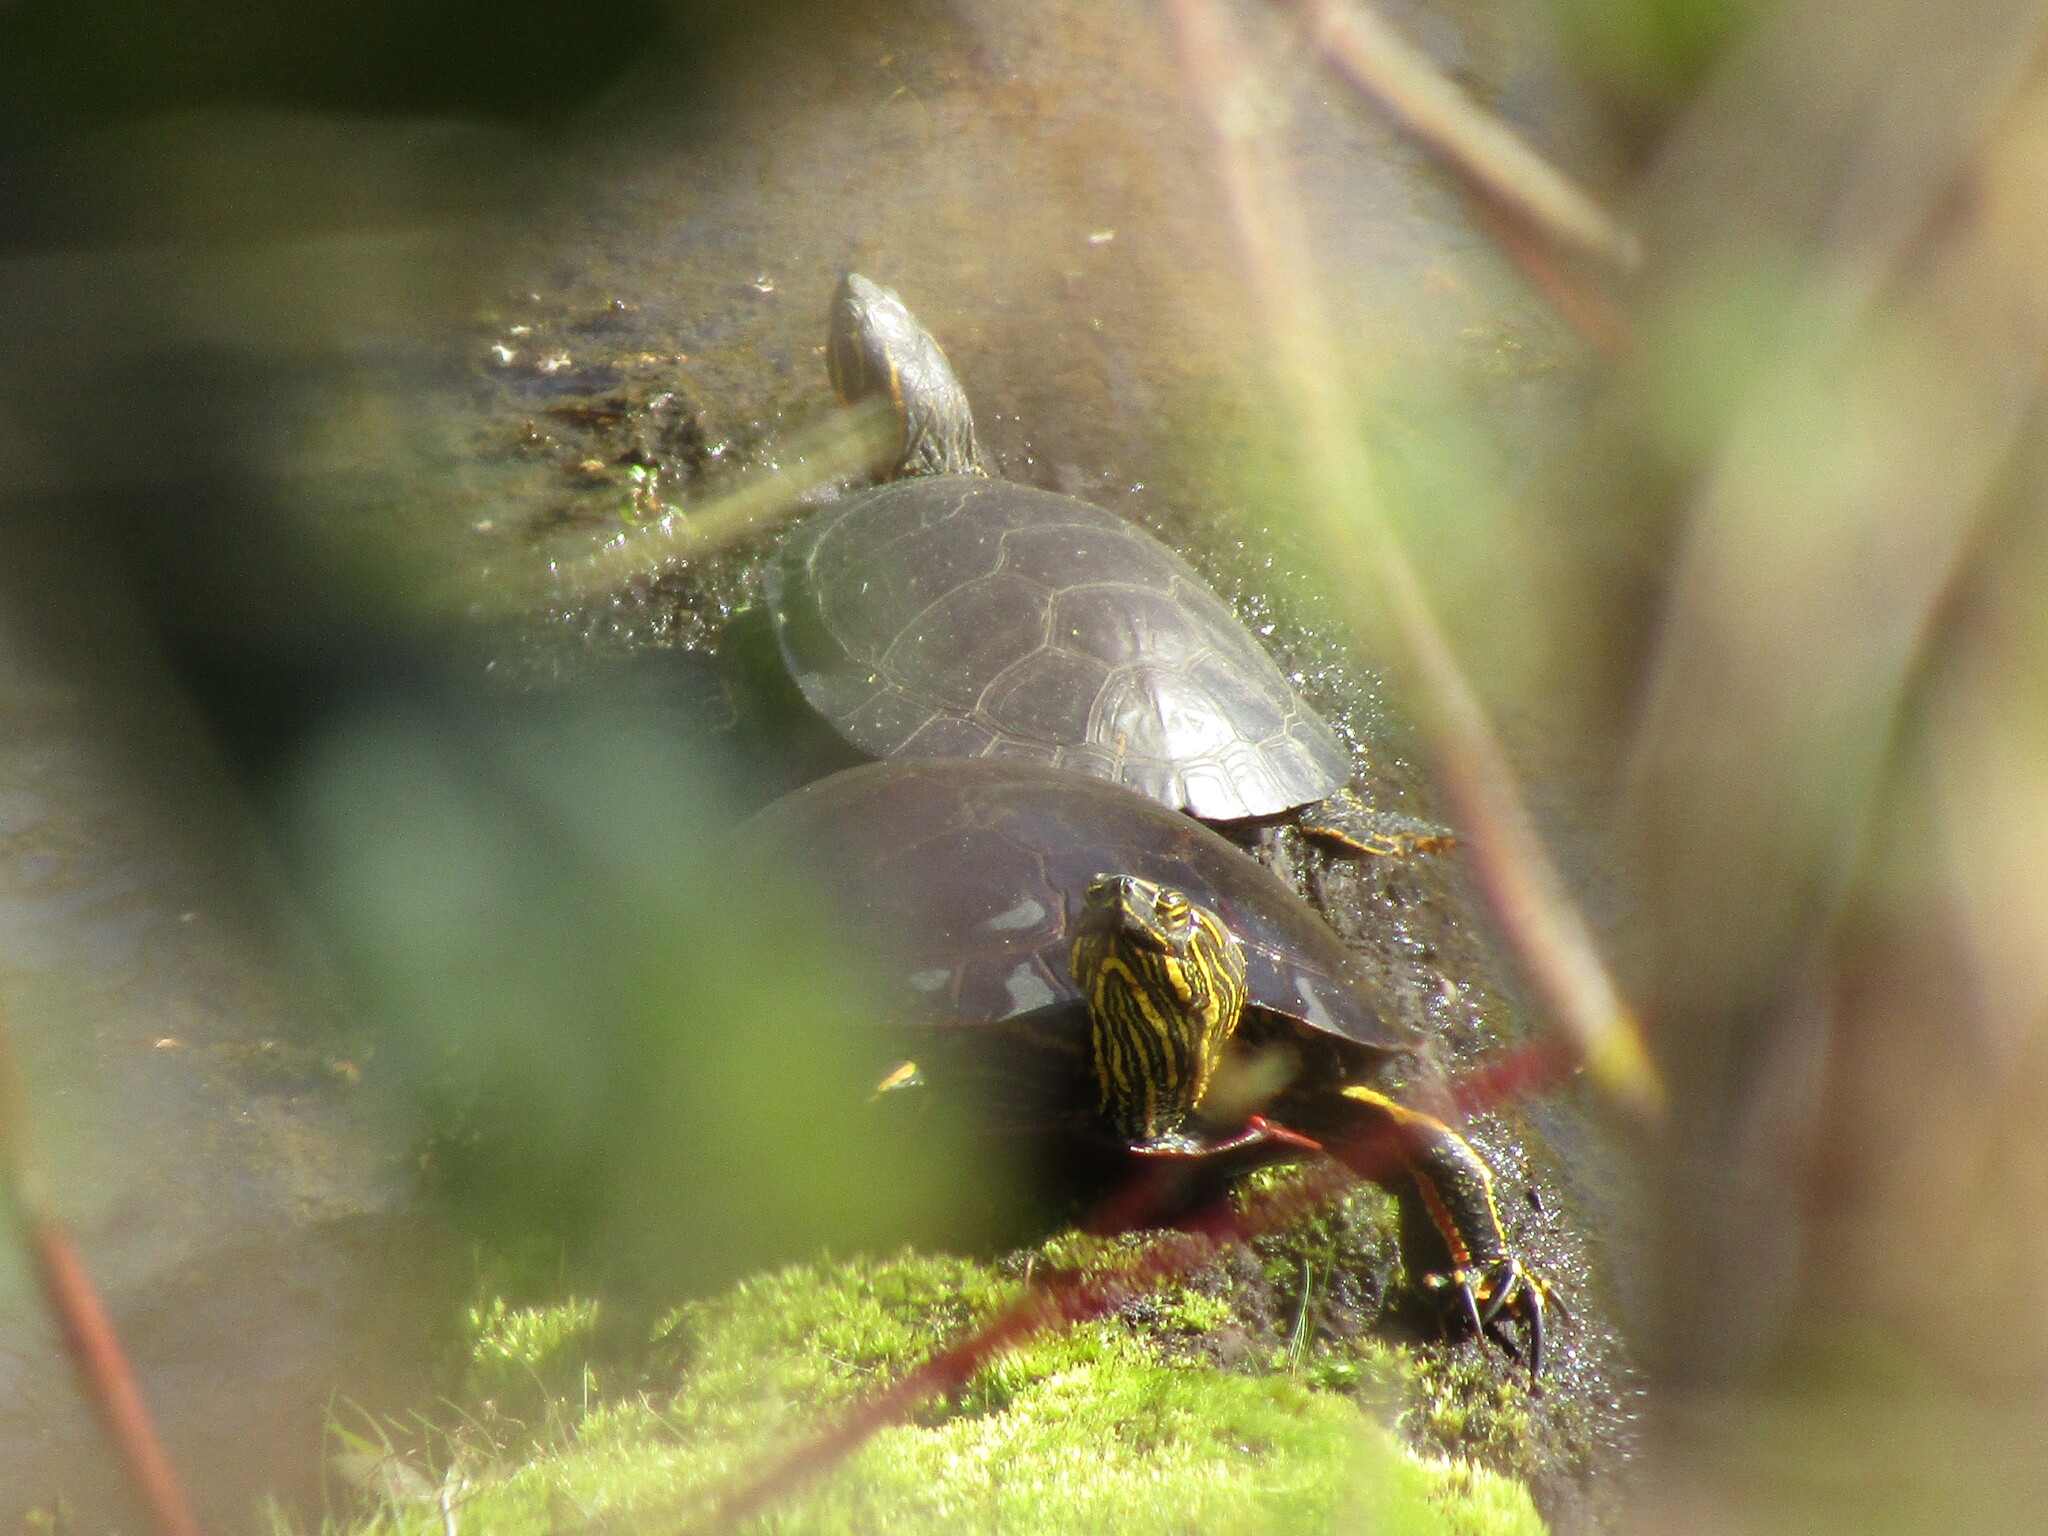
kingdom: Animalia
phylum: Chordata
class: Testudines
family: Emydidae
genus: Chrysemys
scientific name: Chrysemys picta
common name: Painted turtle
